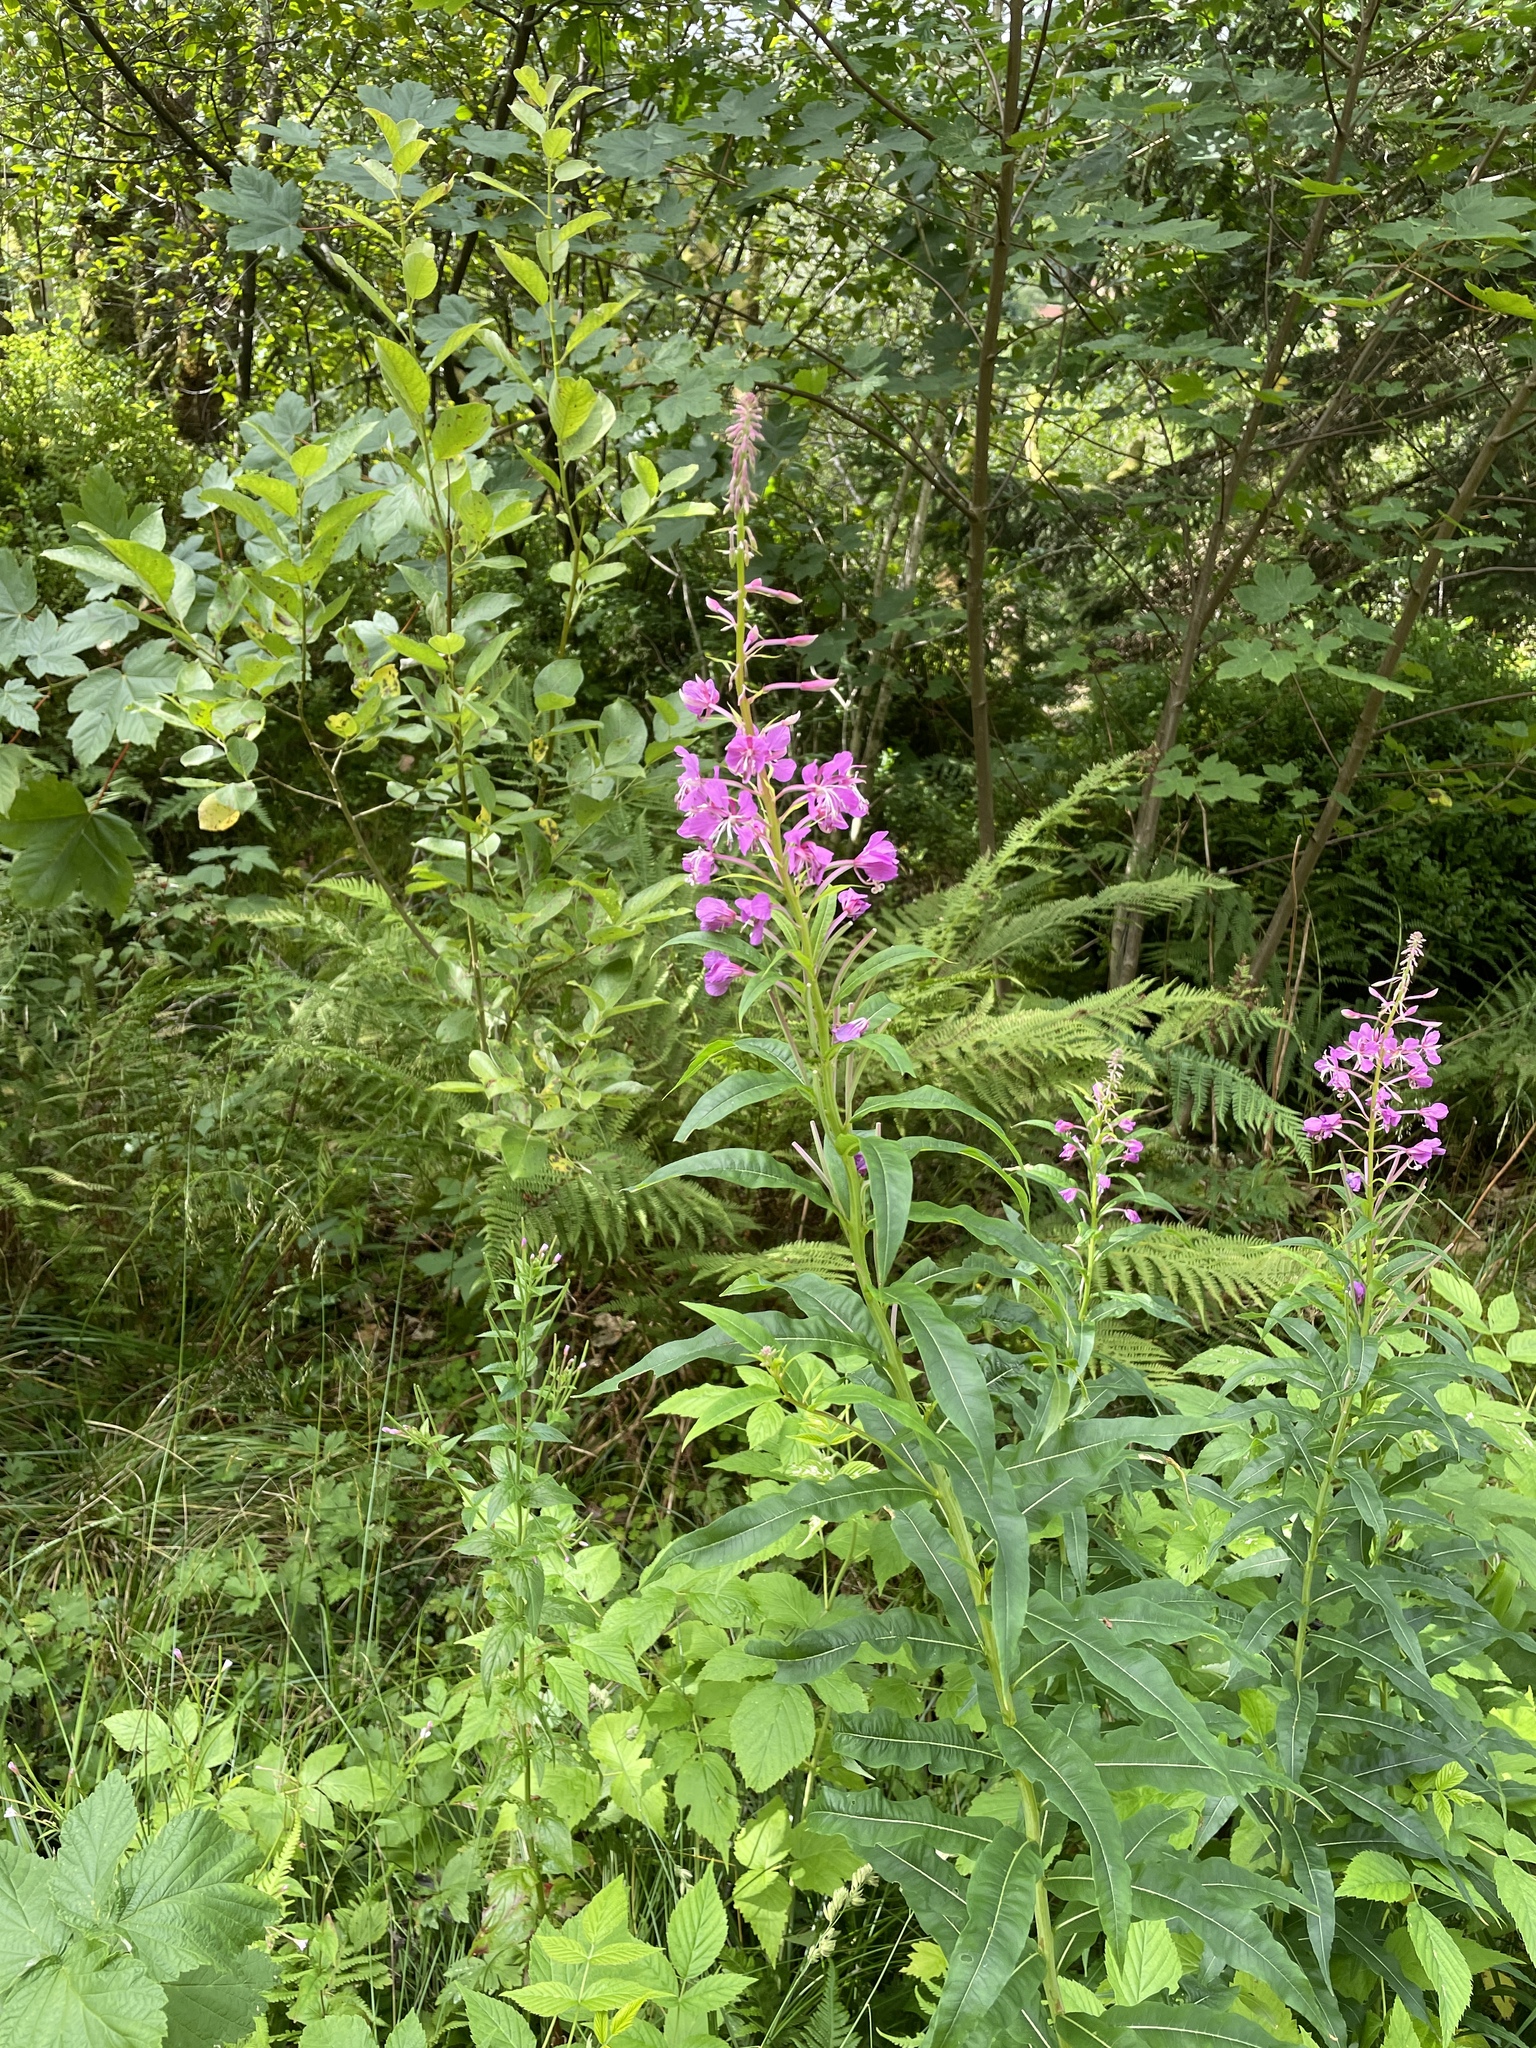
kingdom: Plantae
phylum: Tracheophyta
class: Magnoliopsida
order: Myrtales
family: Onagraceae
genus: Chamaenerion
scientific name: Chamaenerion angustifolium
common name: Fireweed
